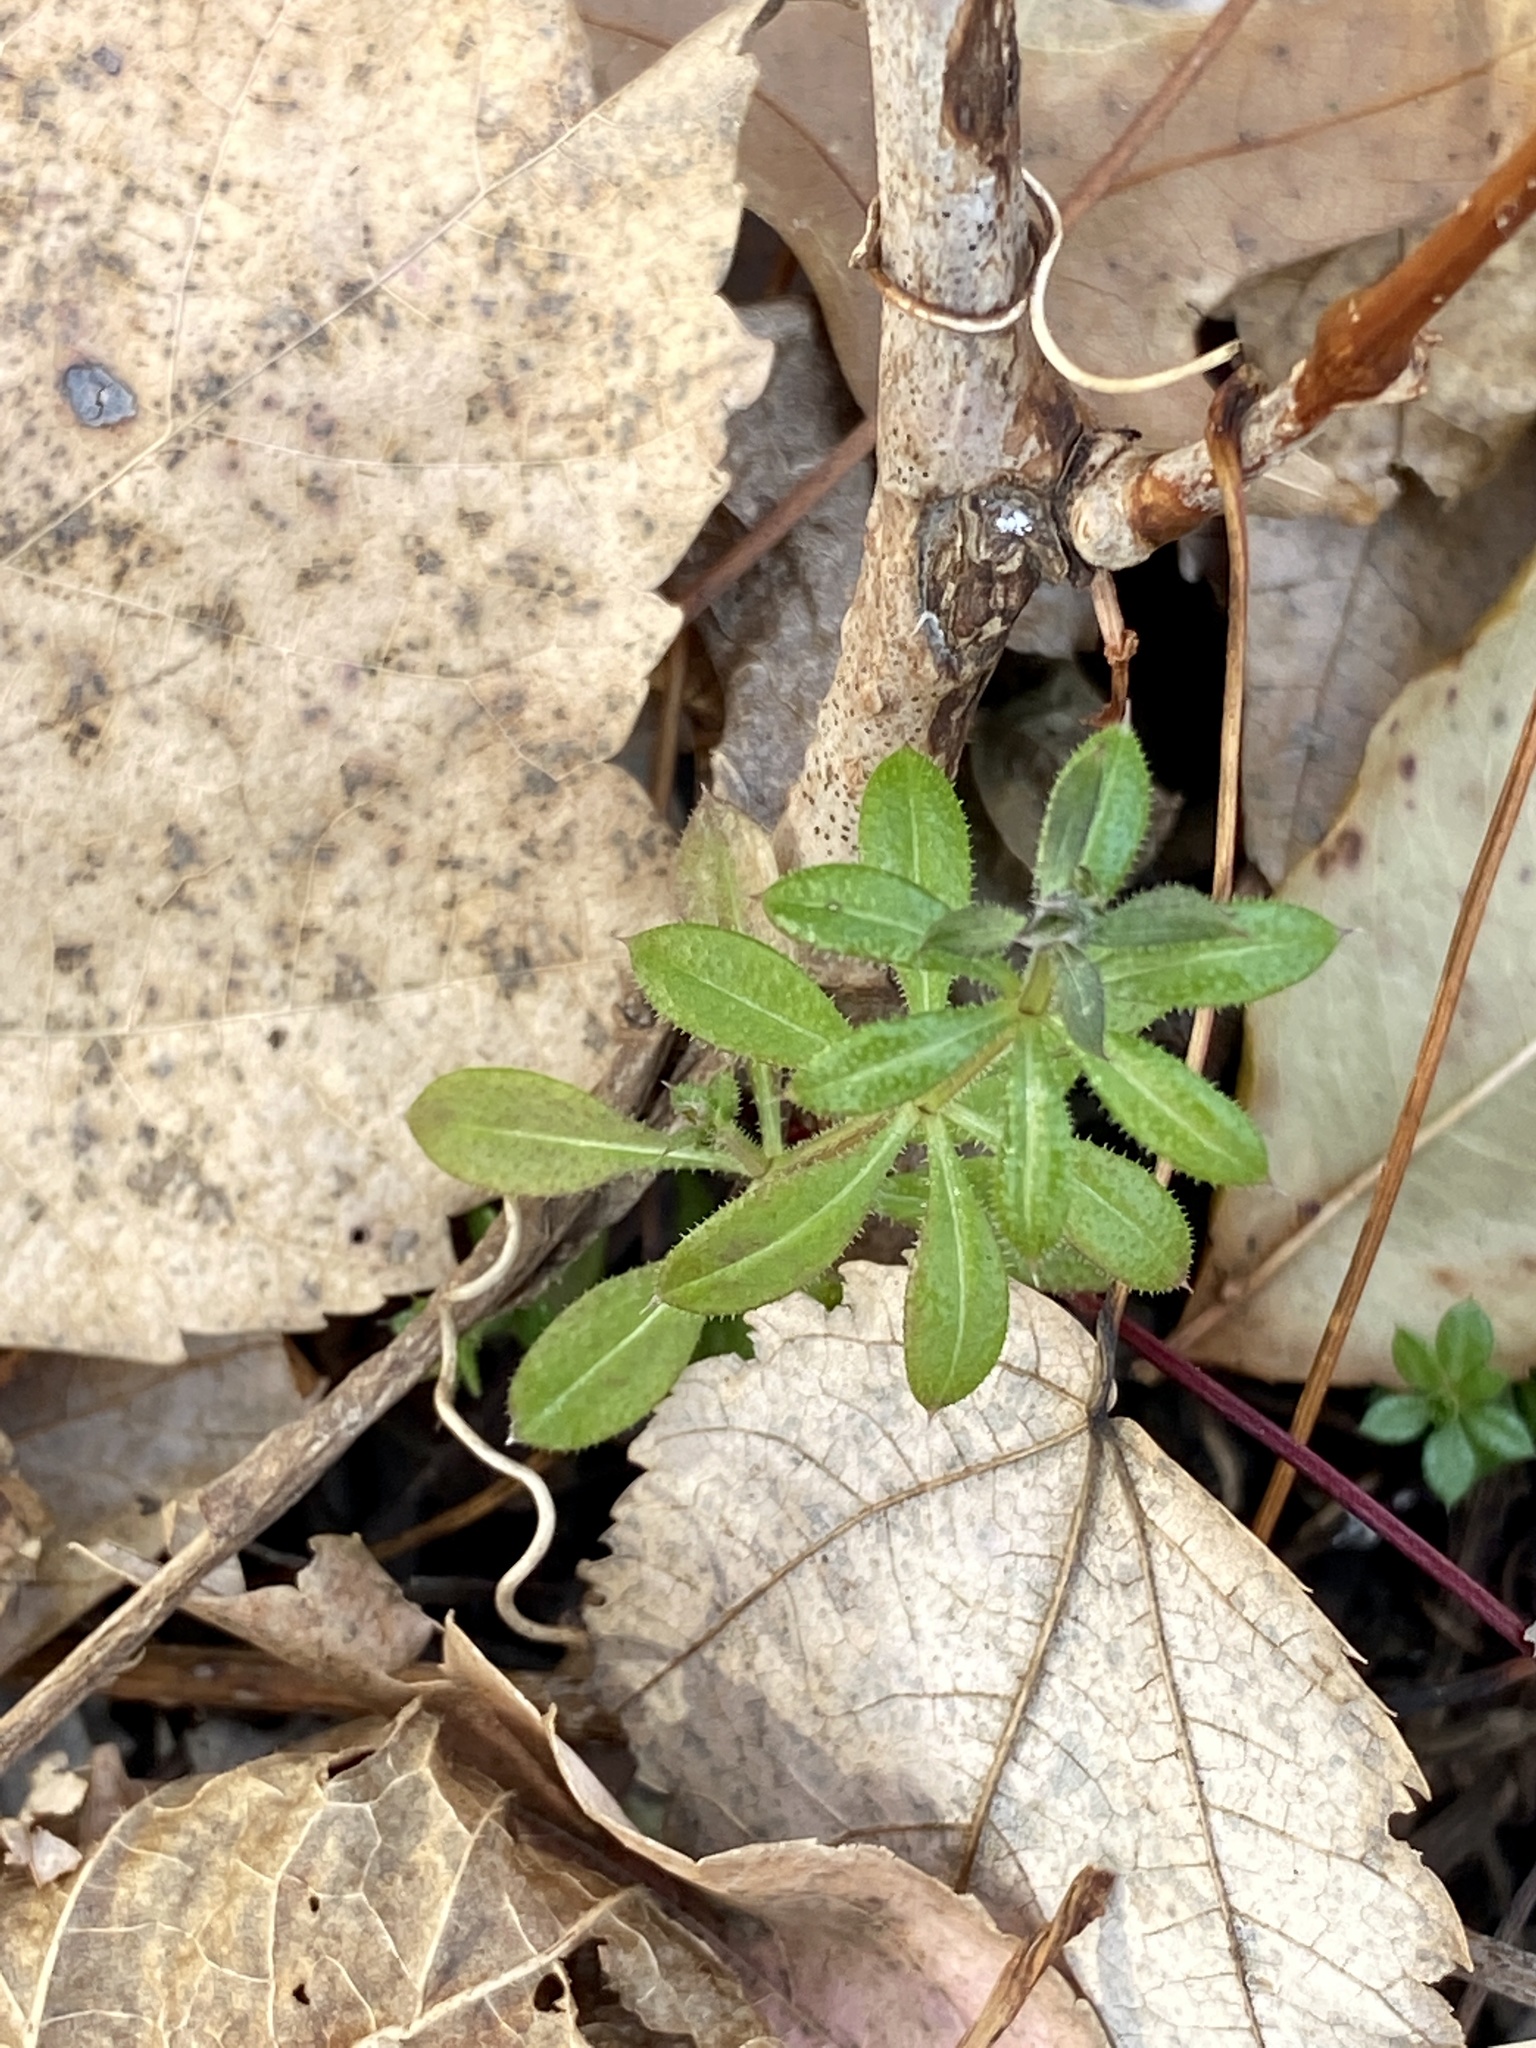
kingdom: Plantae
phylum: Tracheophyta
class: Magnoliopsida
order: Gentianales
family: Rubiaceae
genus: Galium
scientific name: Galium aparine
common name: Cleavers
